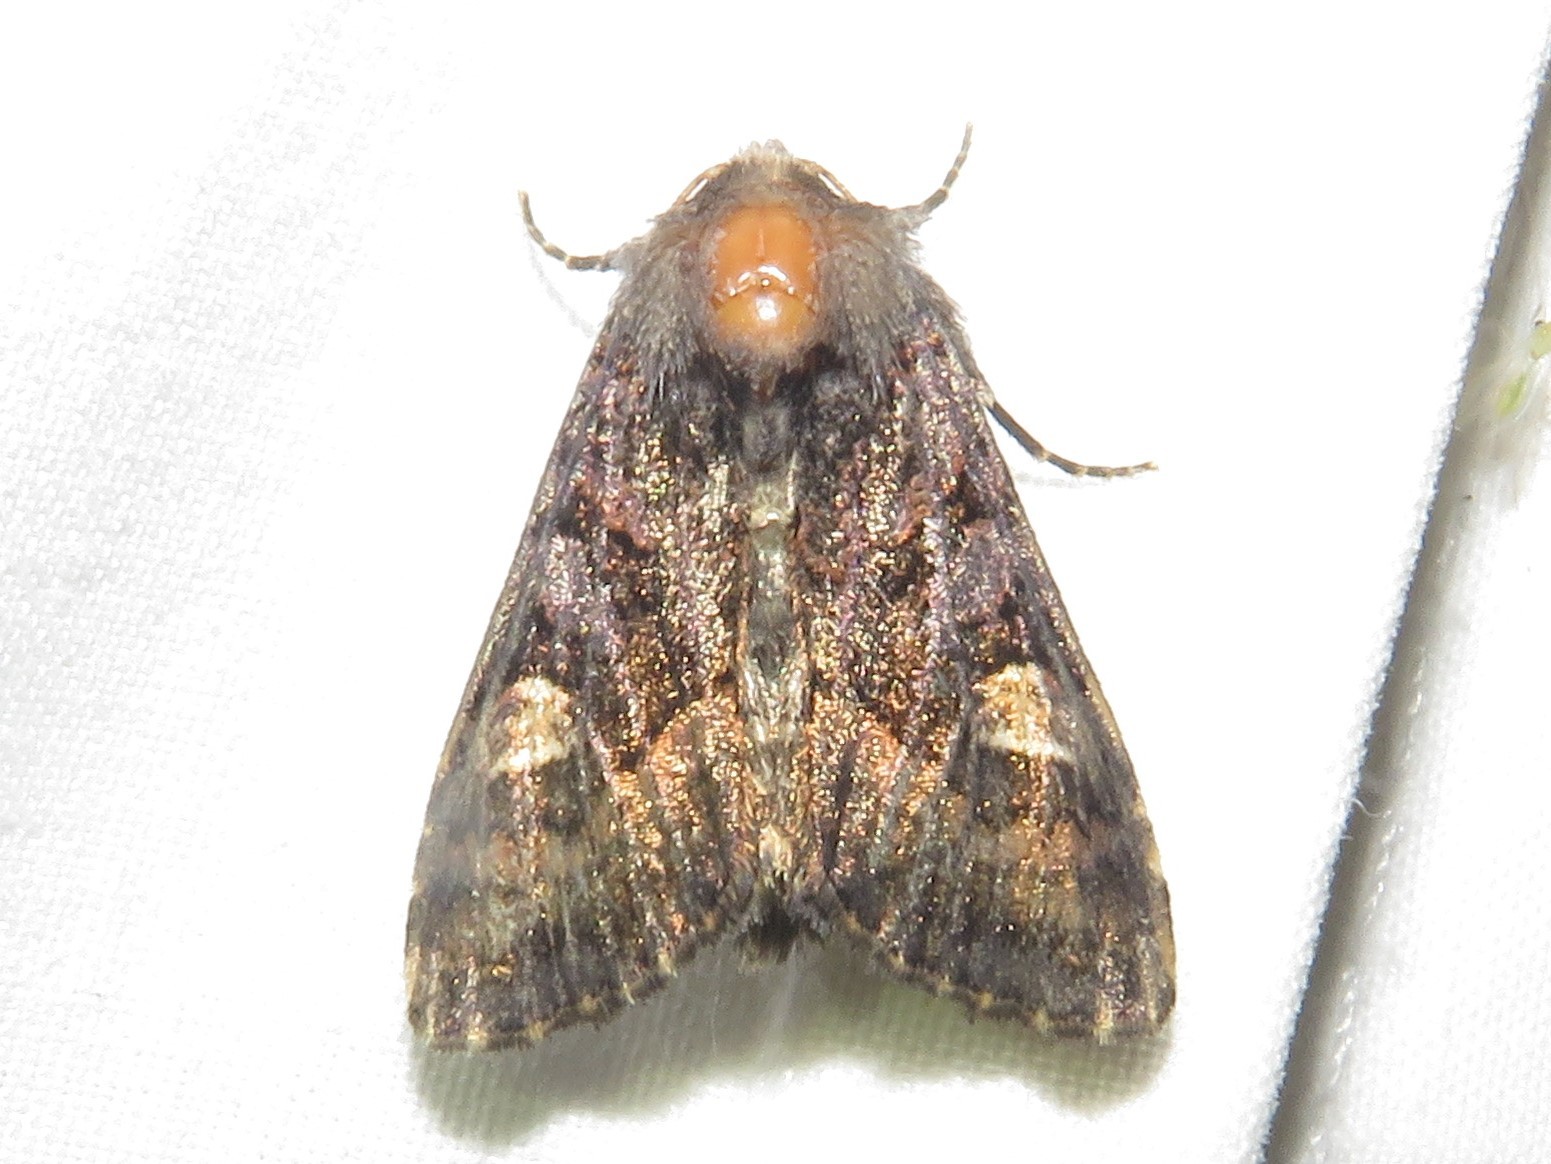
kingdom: Animalia
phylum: Arthropoda
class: Insecta
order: Lepidoptera
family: Noctuidae
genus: Euplexia
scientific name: Euplexia benesimilis
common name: American angle shades
